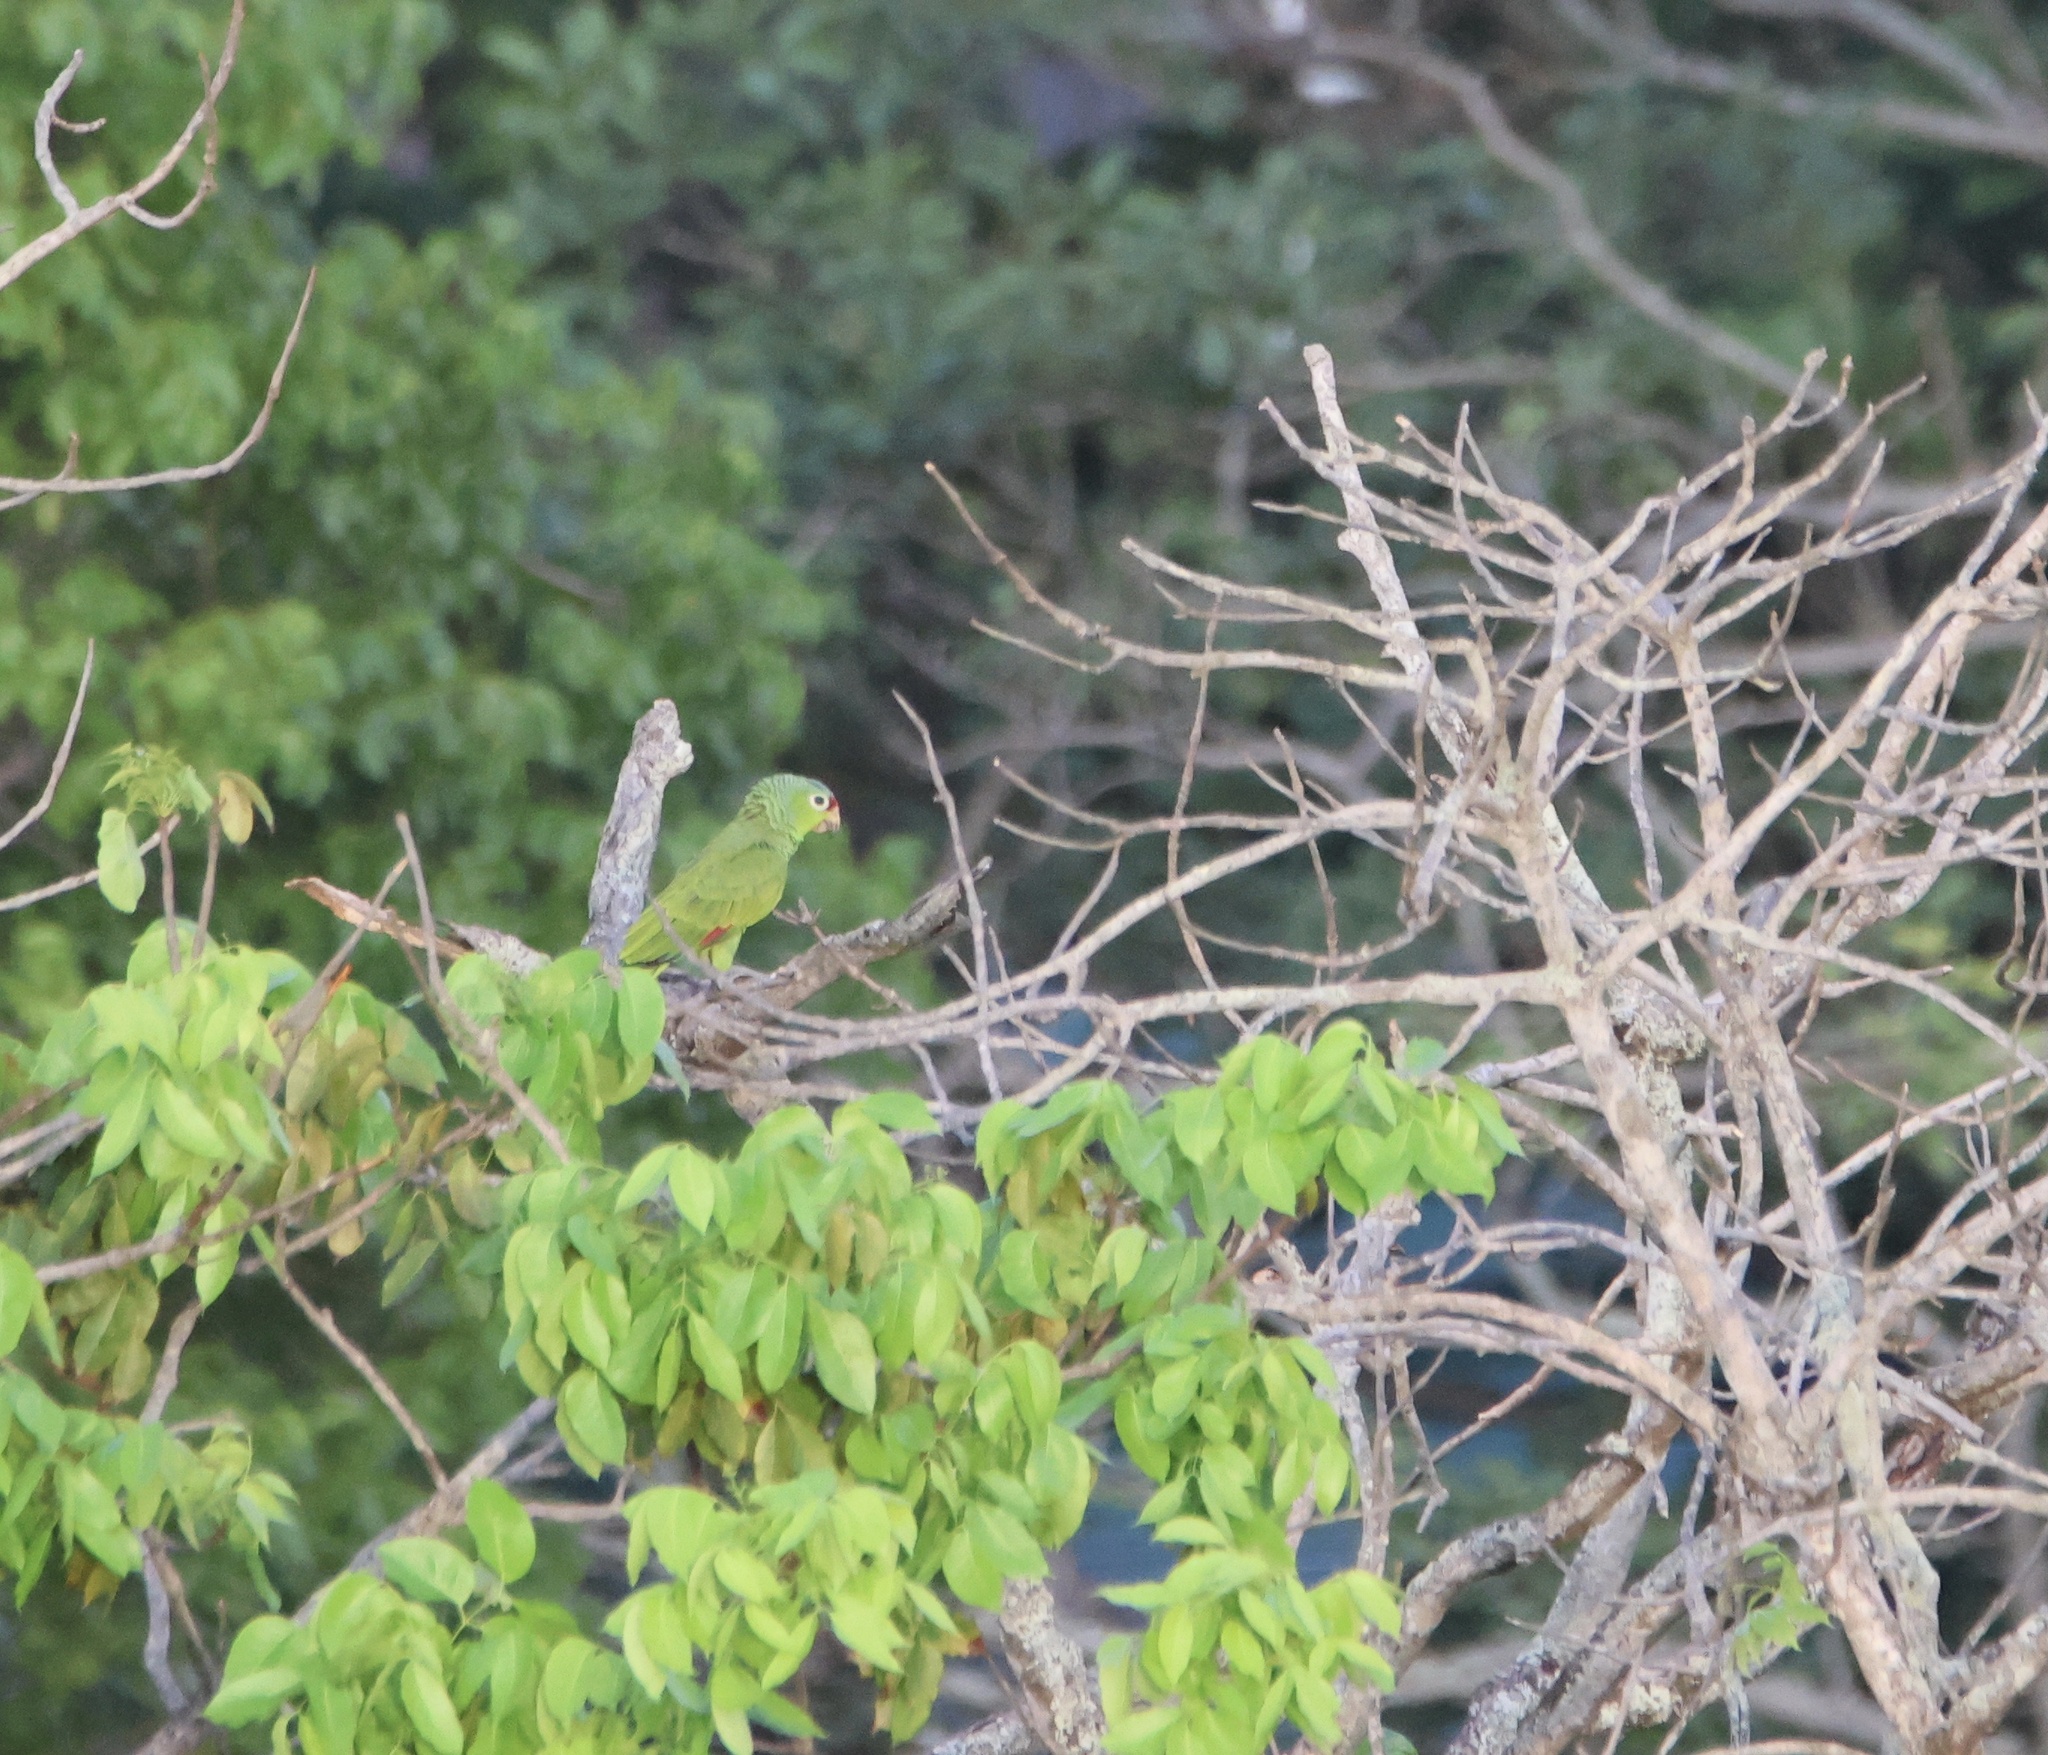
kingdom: Animalia
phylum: Chordata
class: Aves
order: Psittaciformes
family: Psittacidae
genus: Amazona
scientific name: Amazona autumnalis
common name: Red-lored amazon
